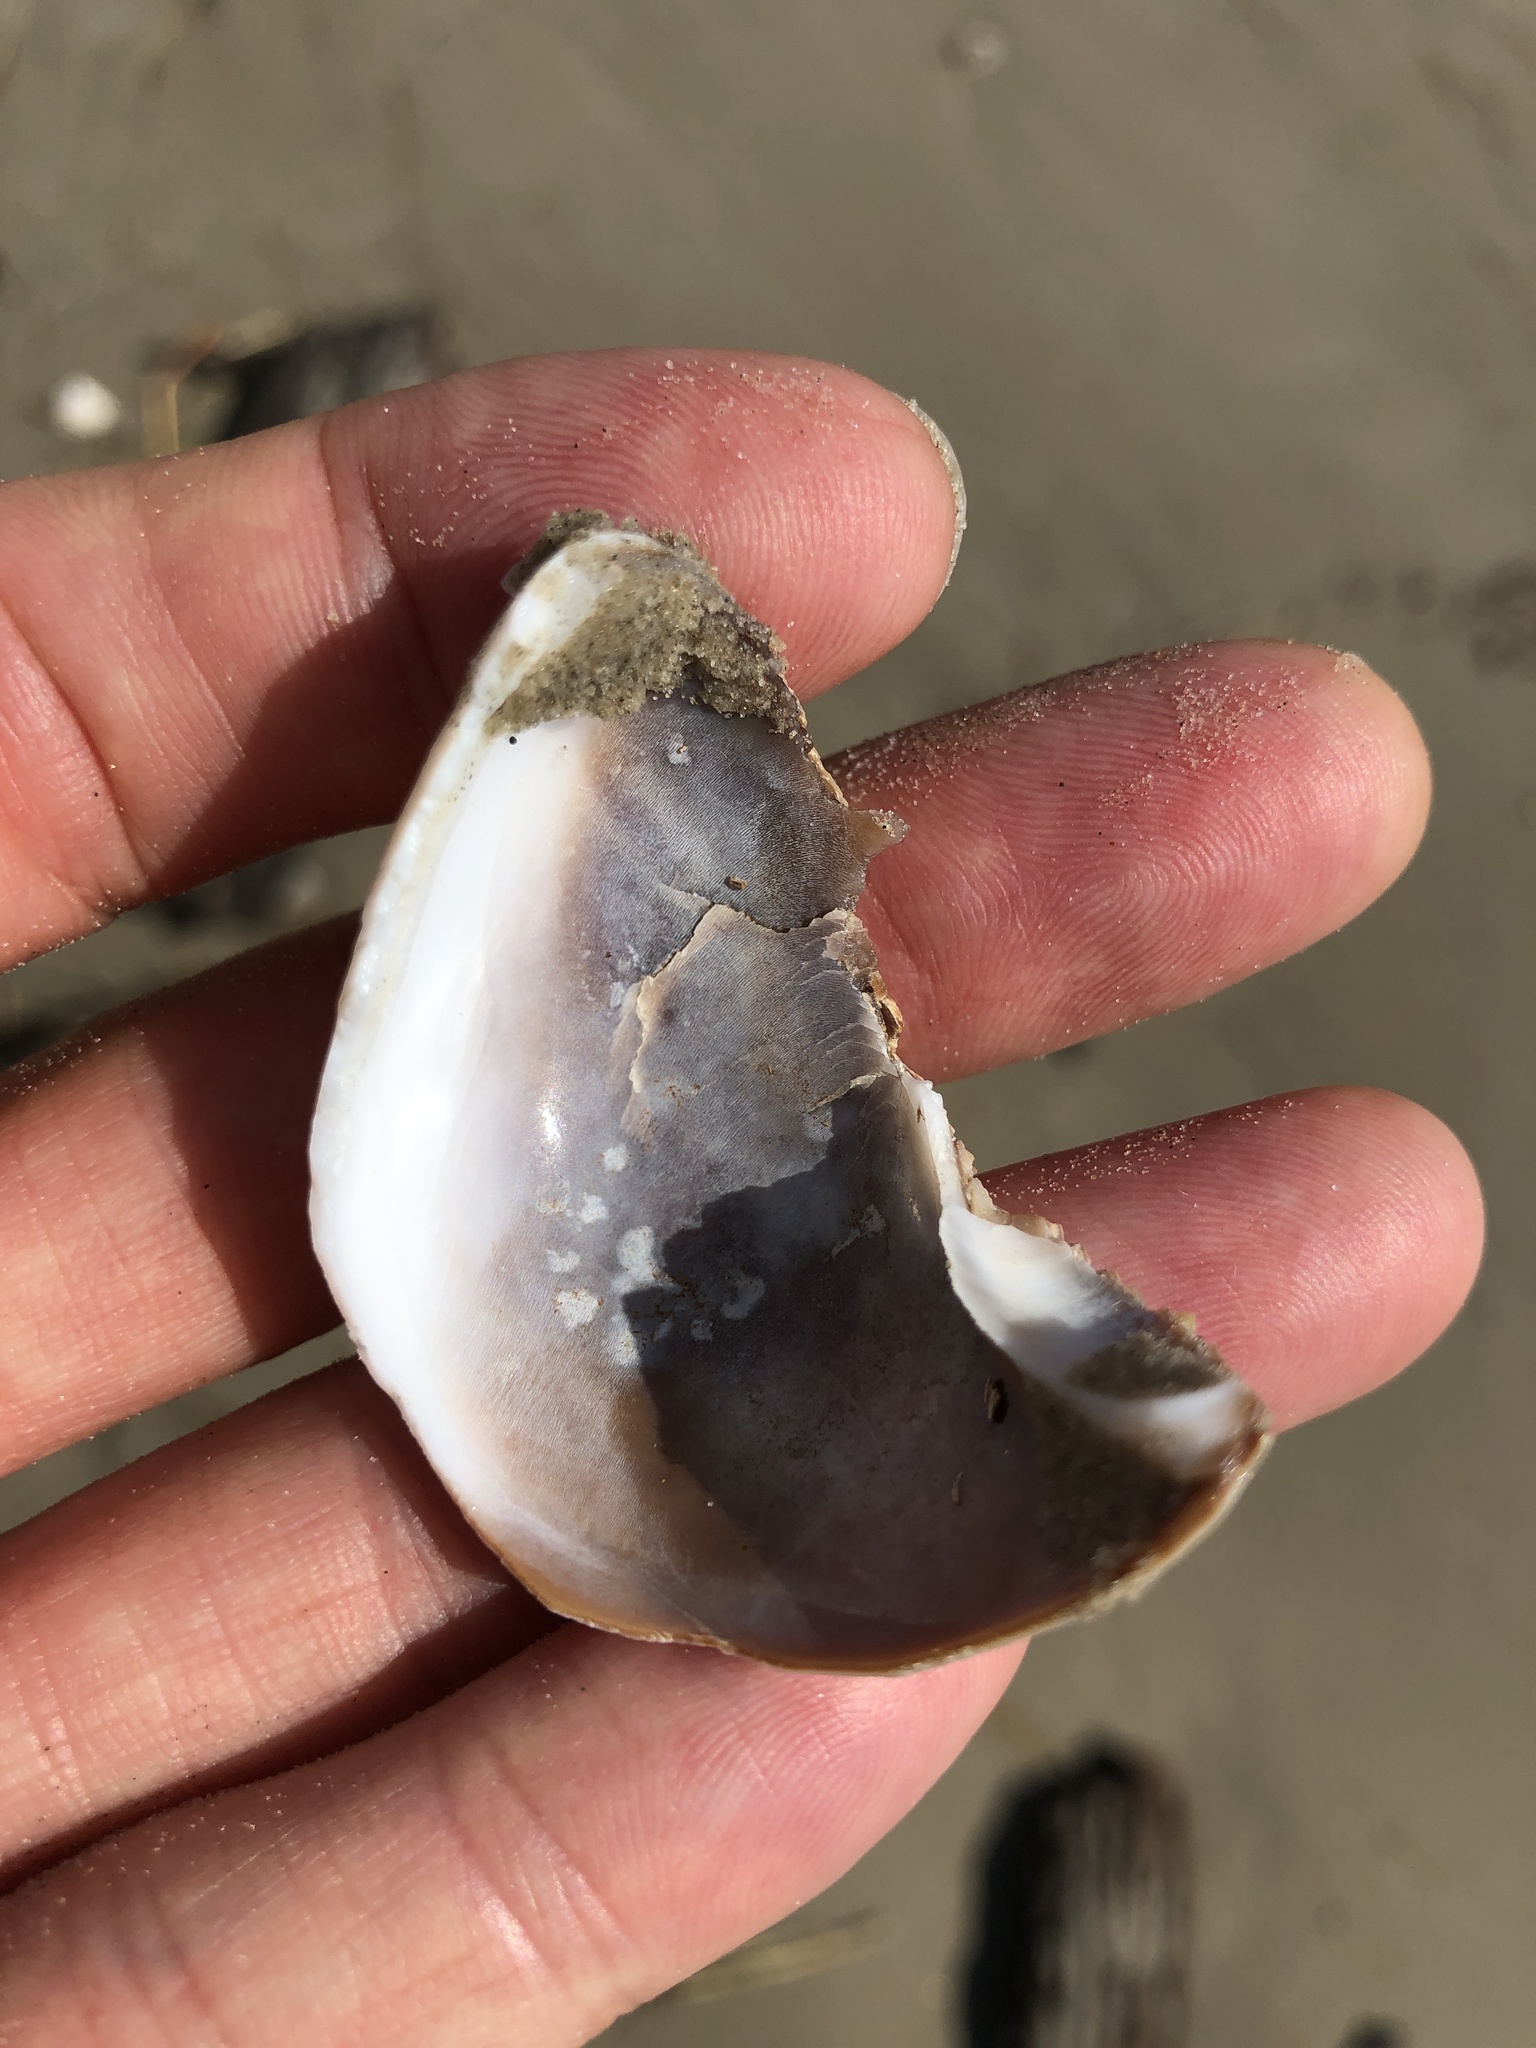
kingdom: Animalia
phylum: Mollusca
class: Gastropoda
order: Littorinimorpha
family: Naticidae
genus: Neverita
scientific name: Neverita duplicata
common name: Lobed moonsnail
